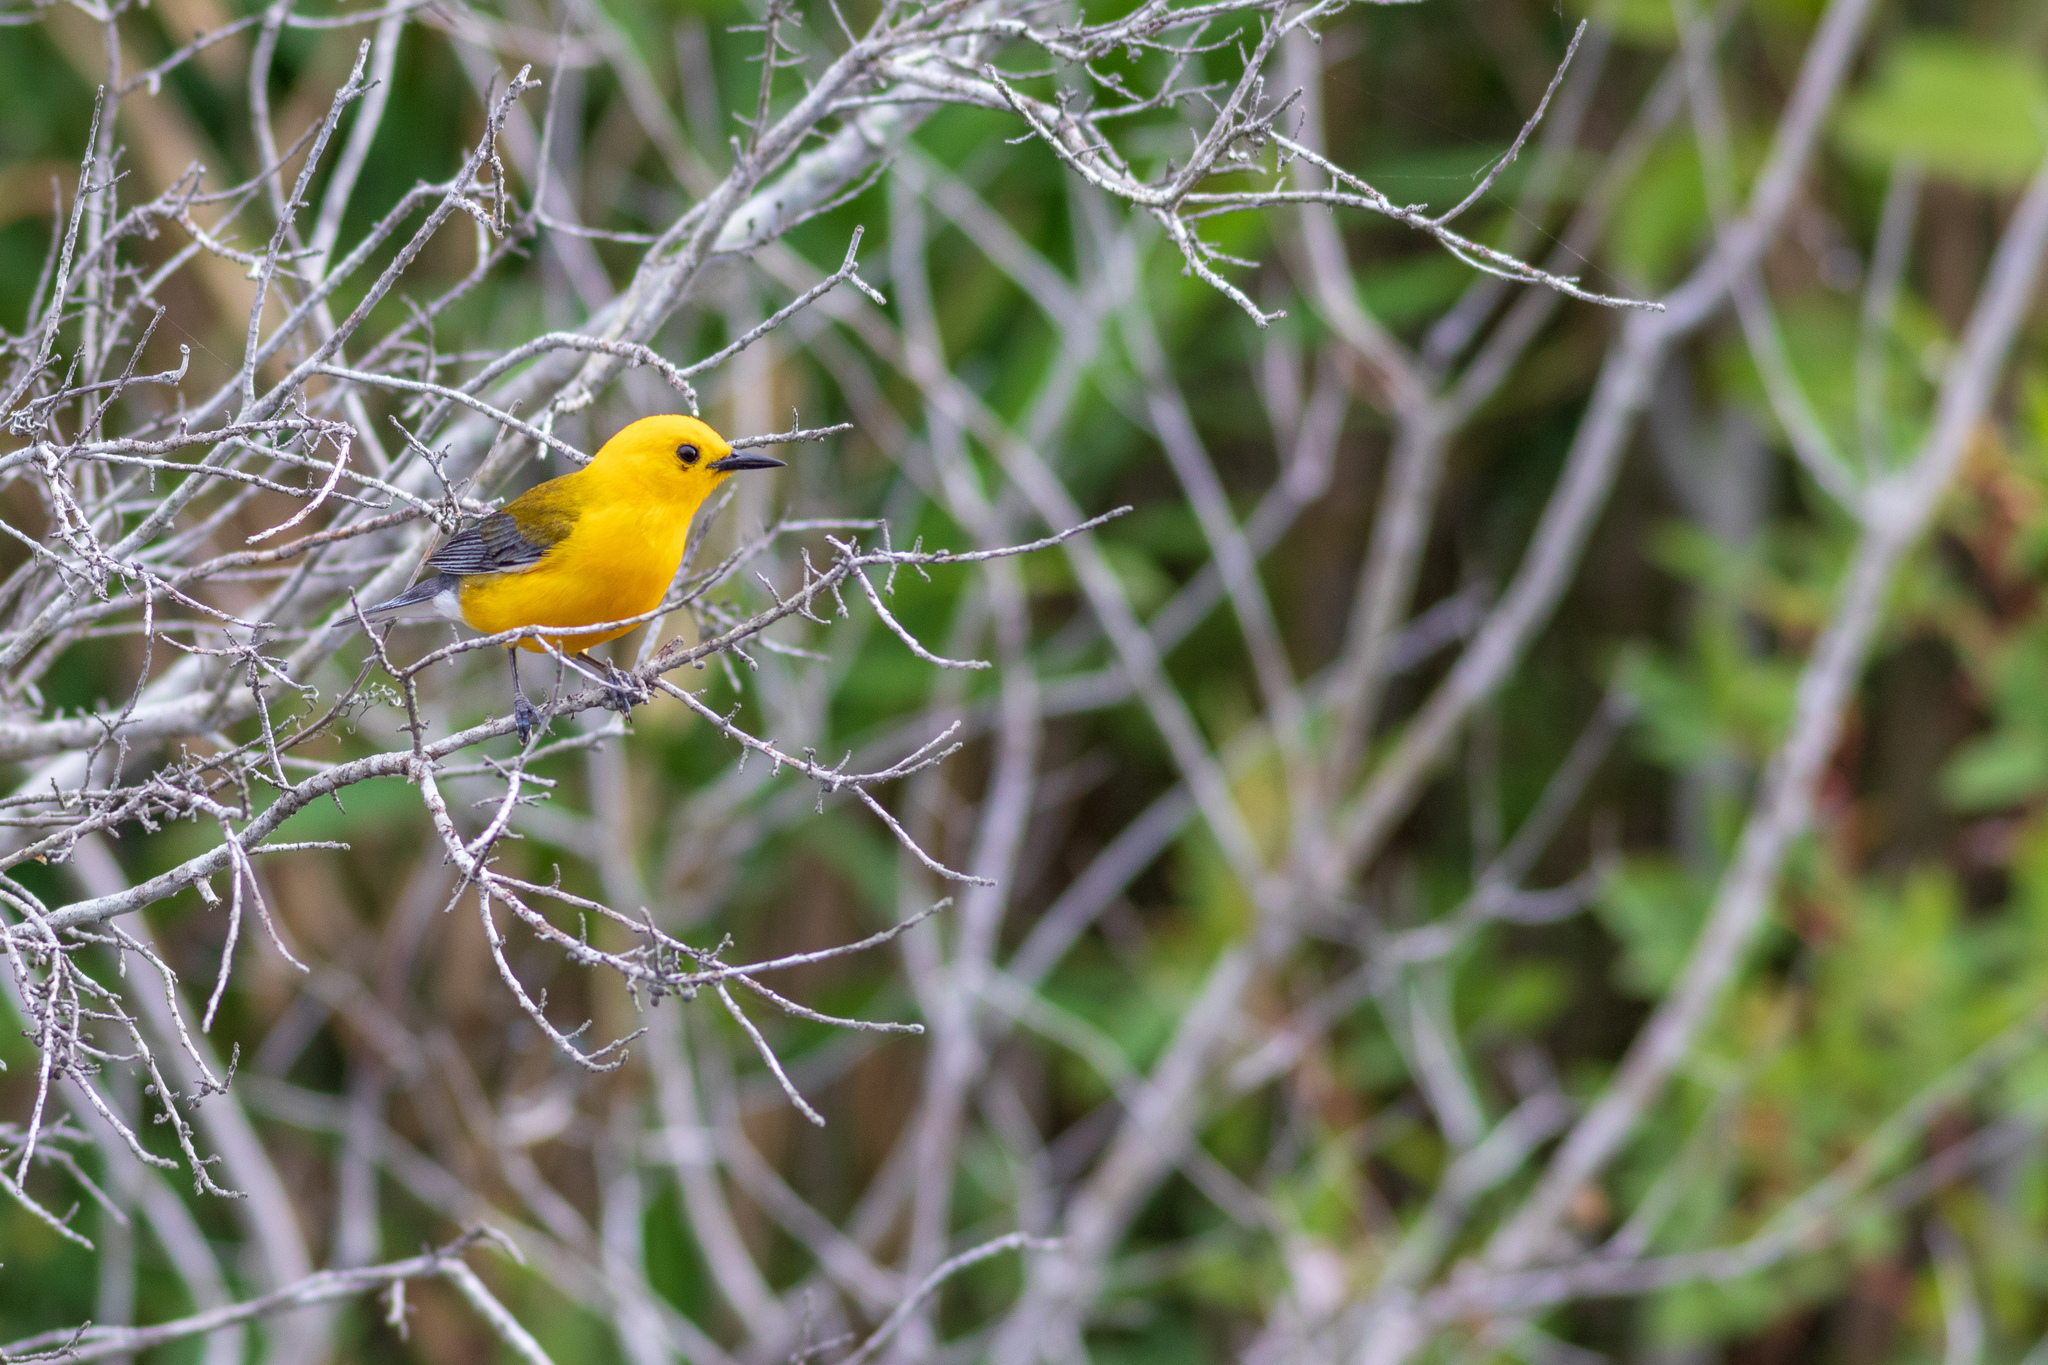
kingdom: Animalia
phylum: Chordata
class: Aves
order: Passeriformes
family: Parulidae
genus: Protonotaria
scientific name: Protonotaria citrea
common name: Prothonotary warbler
